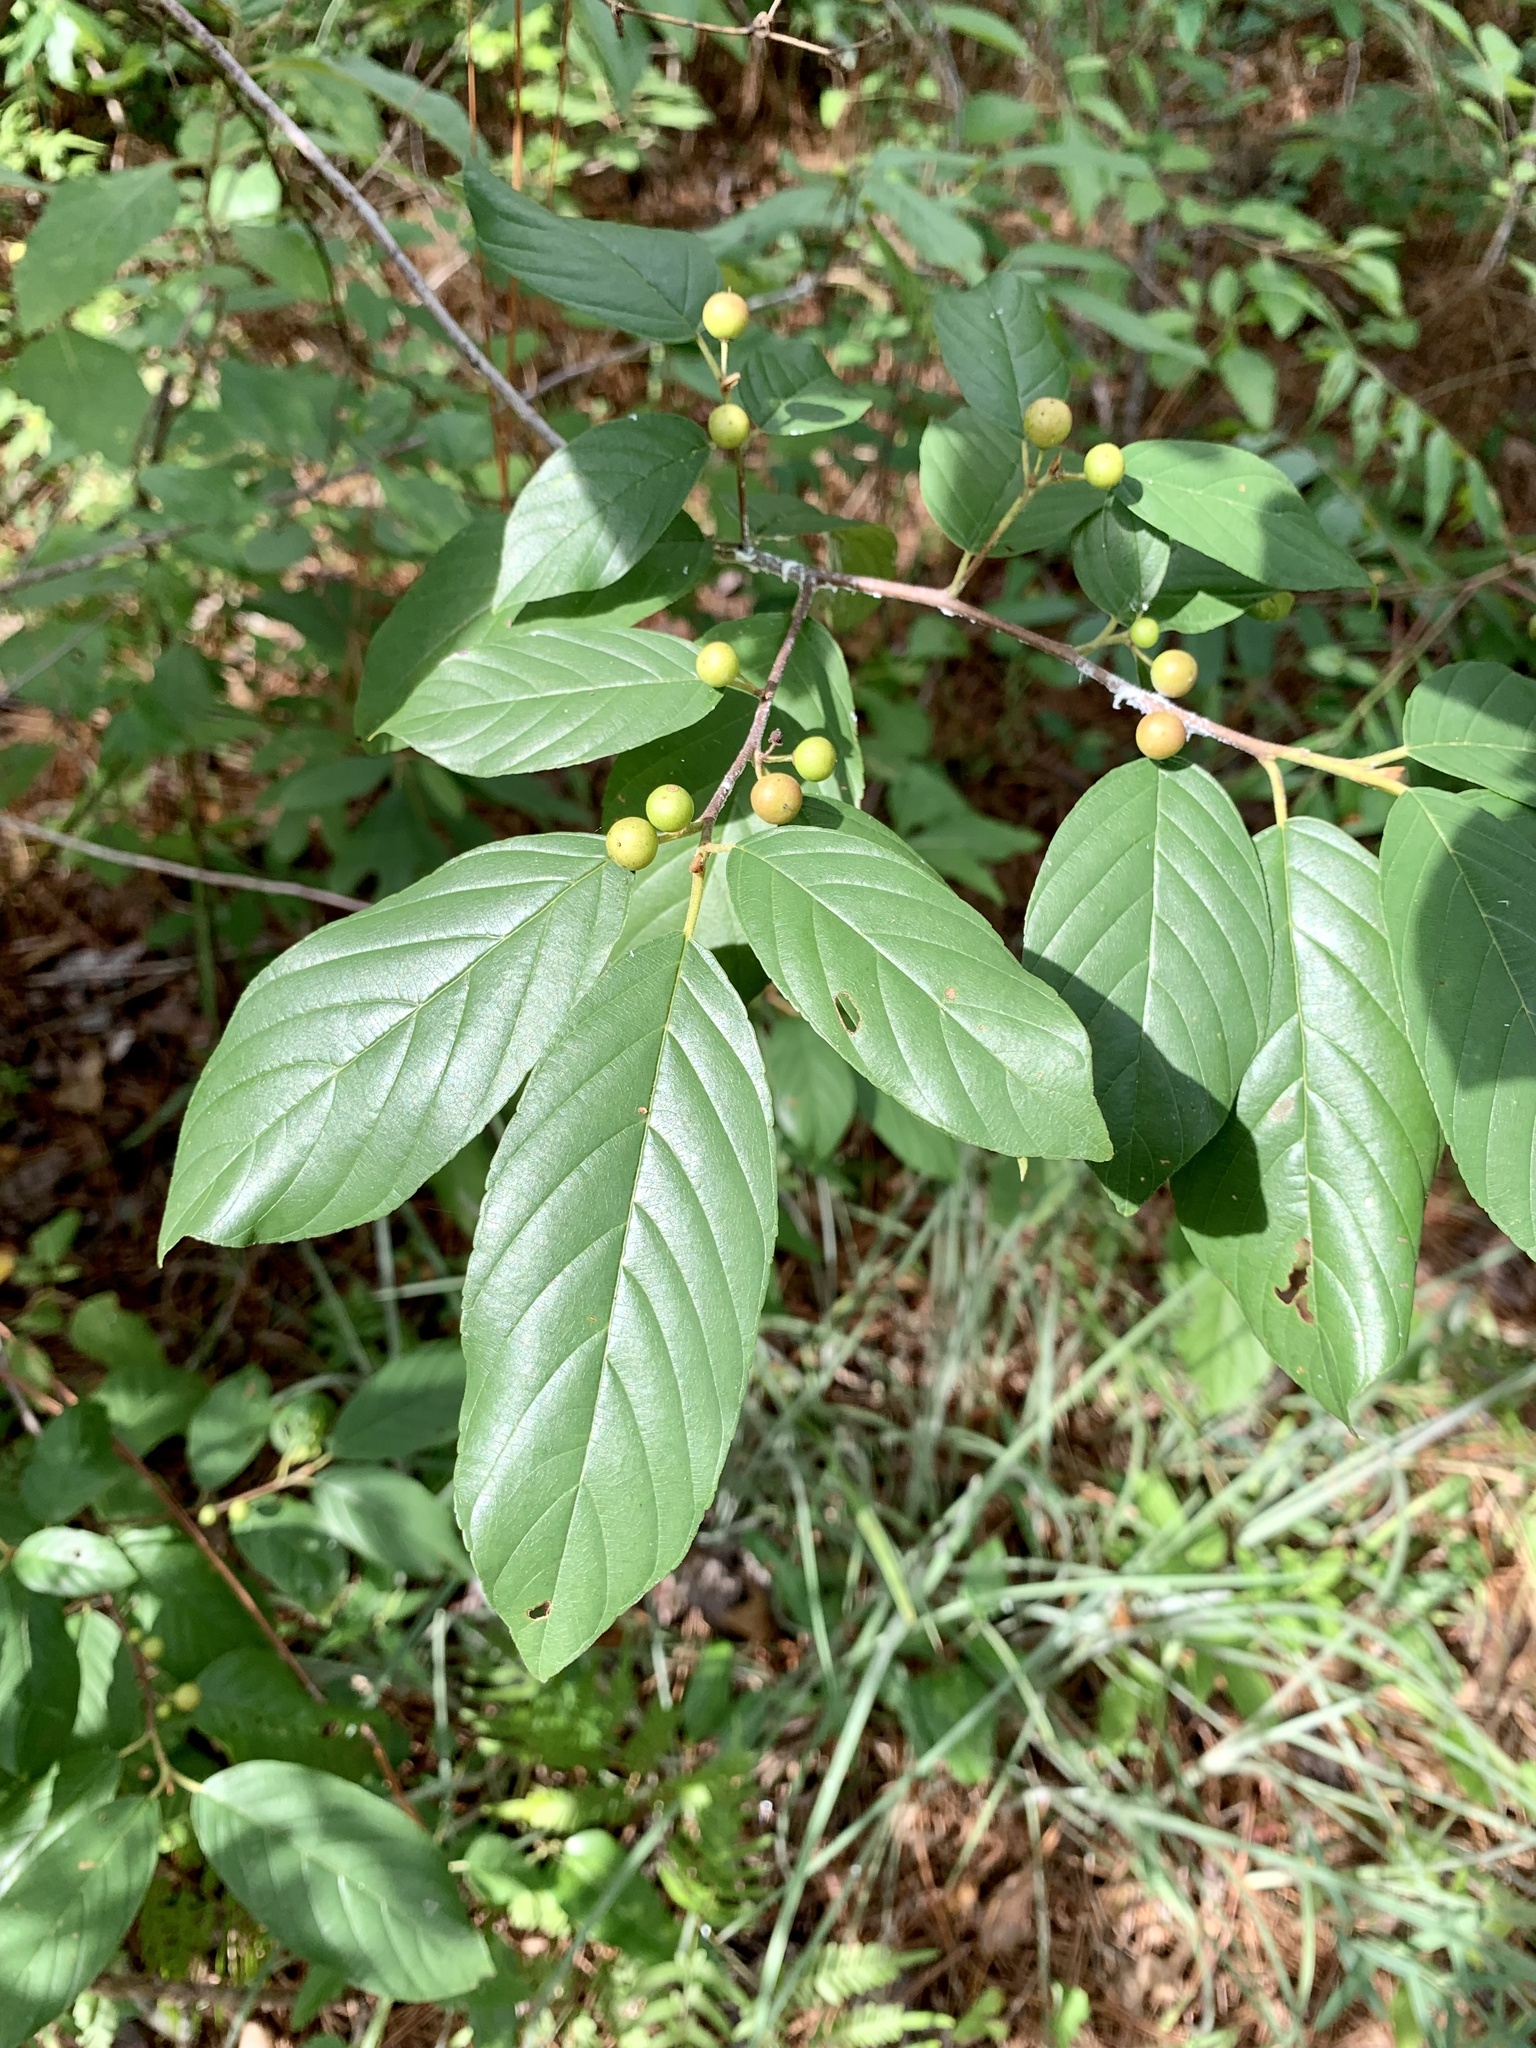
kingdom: Plantae
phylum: Tracheophyta
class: Magnoliopsida
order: Rosales
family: Rhamnaceae
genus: Frangula
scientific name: Frangula caroliniana
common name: Carolina buckthorn
